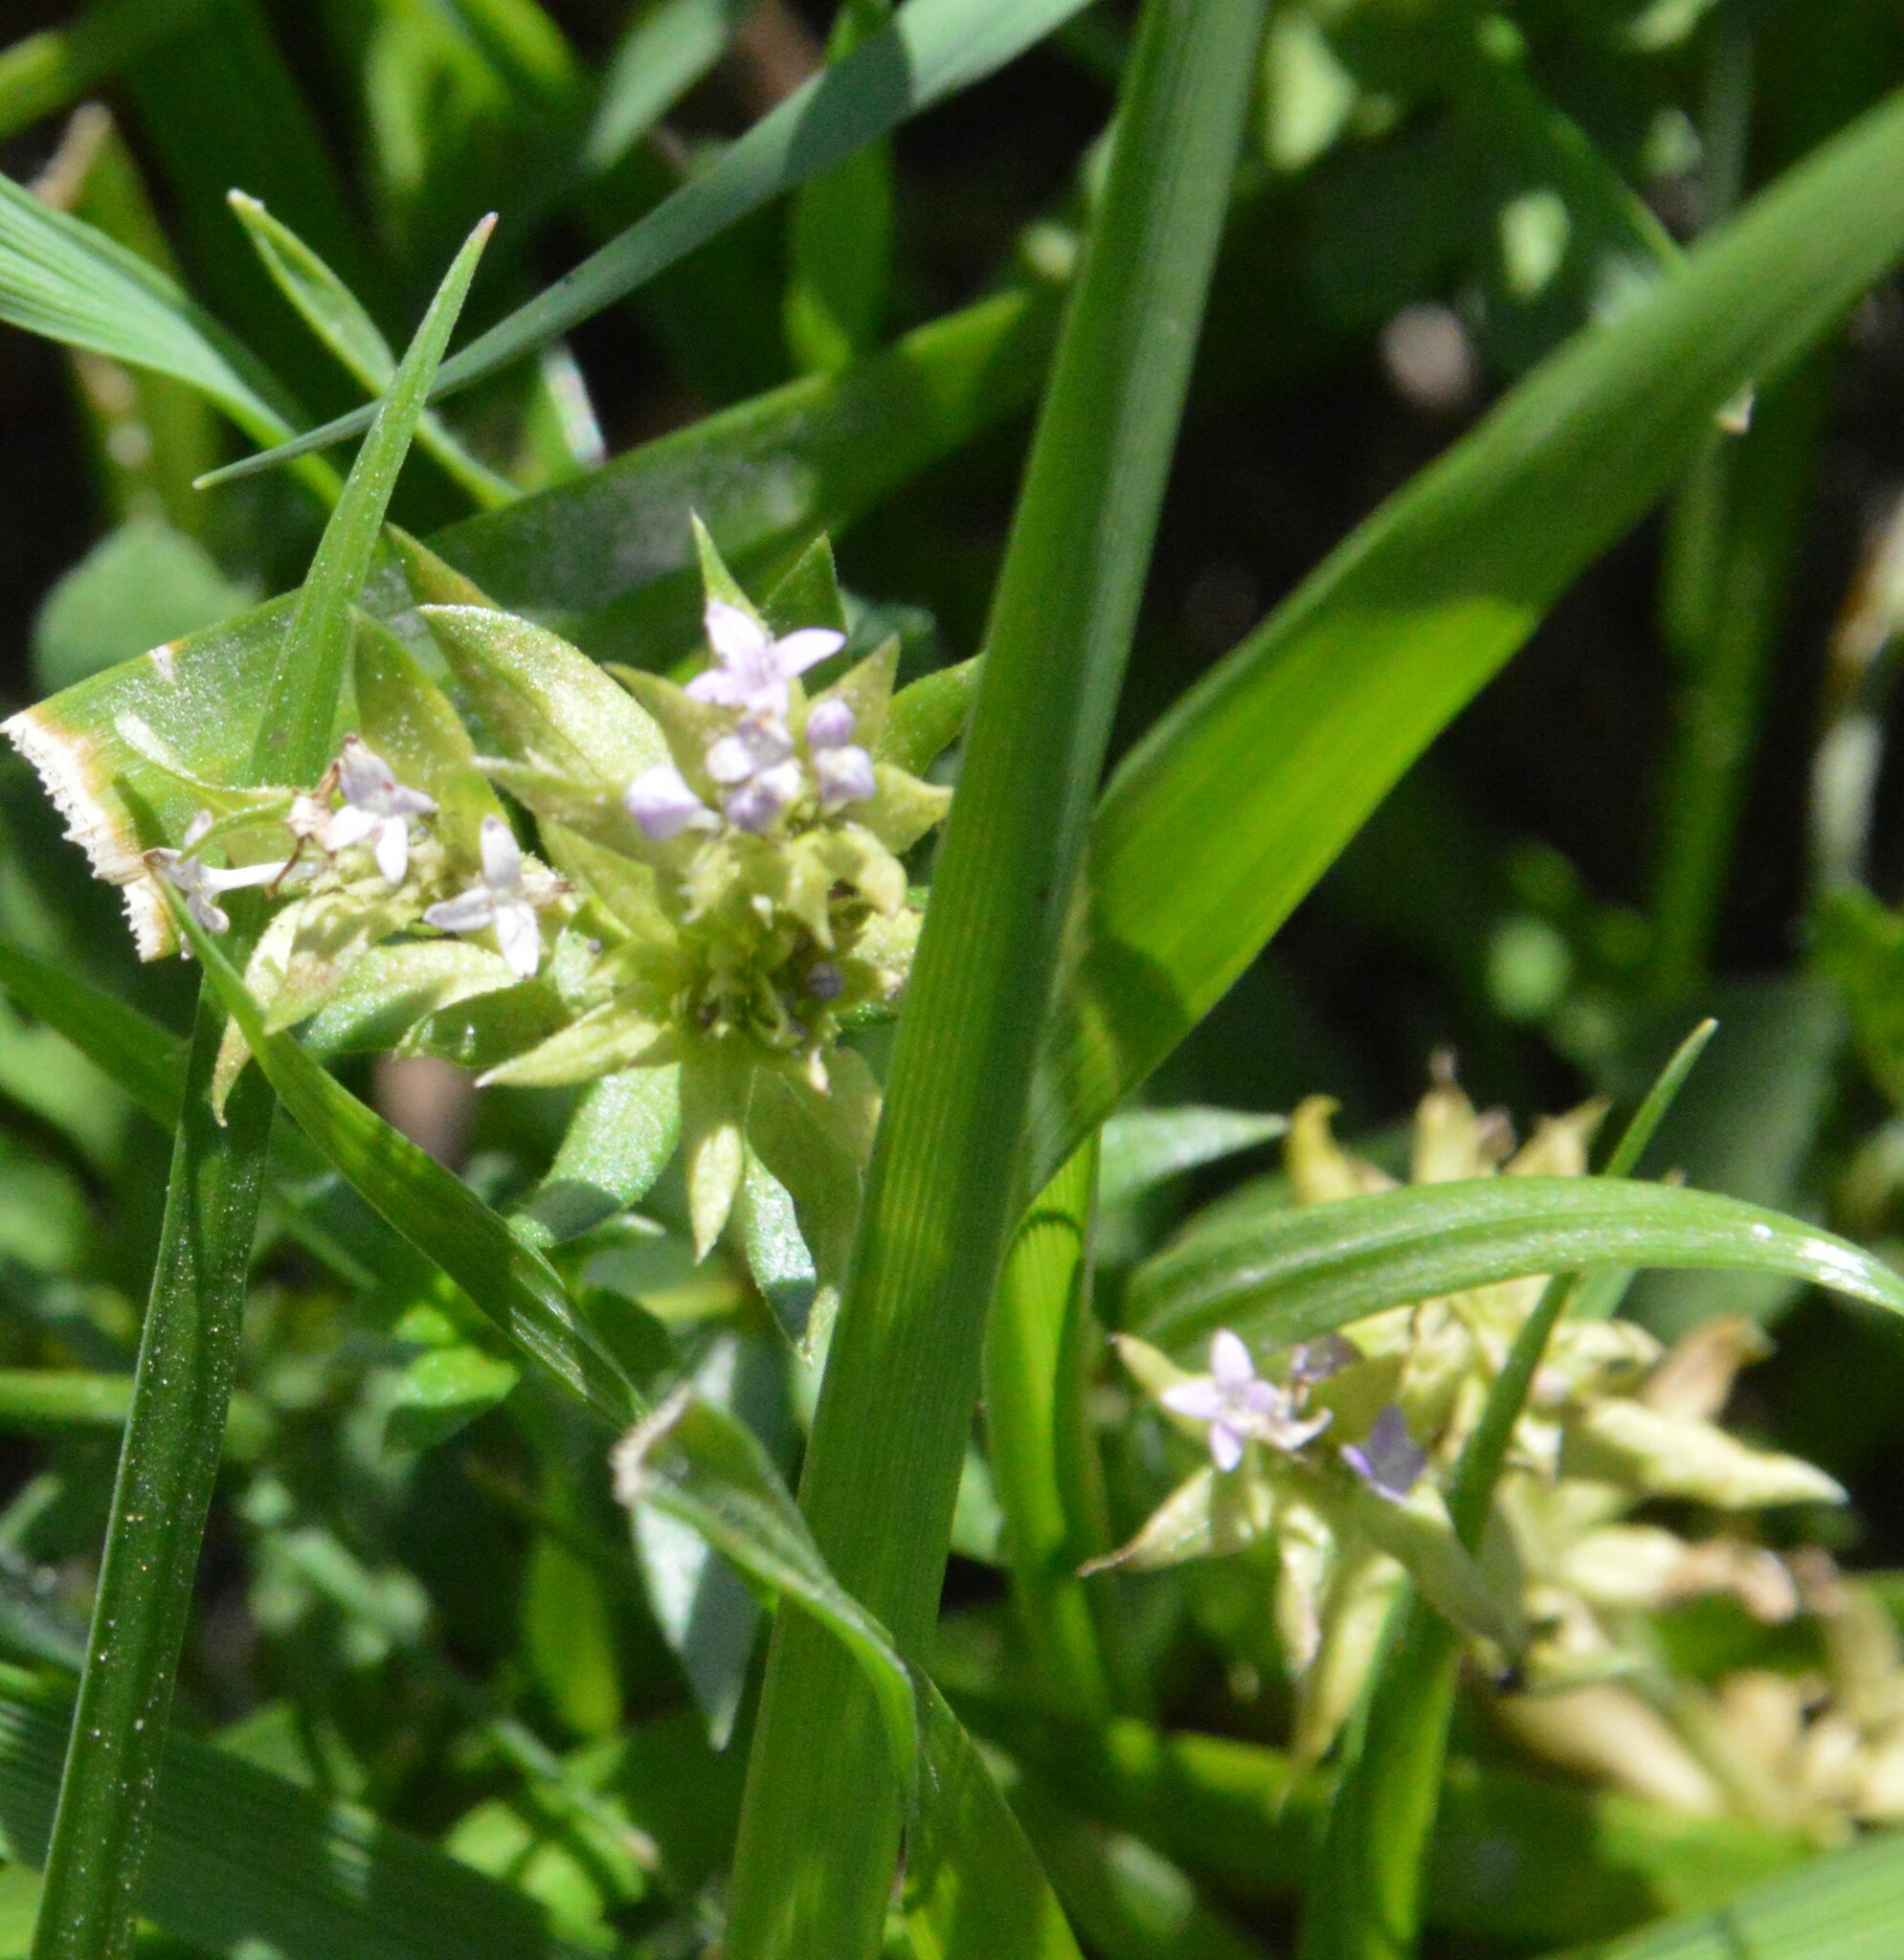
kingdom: Plantae
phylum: Tracheophyta
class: Magnoliopsida
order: Gentianales
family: Rubiaceae
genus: Sherardia
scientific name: Sherardia arvensis
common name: Field madder
